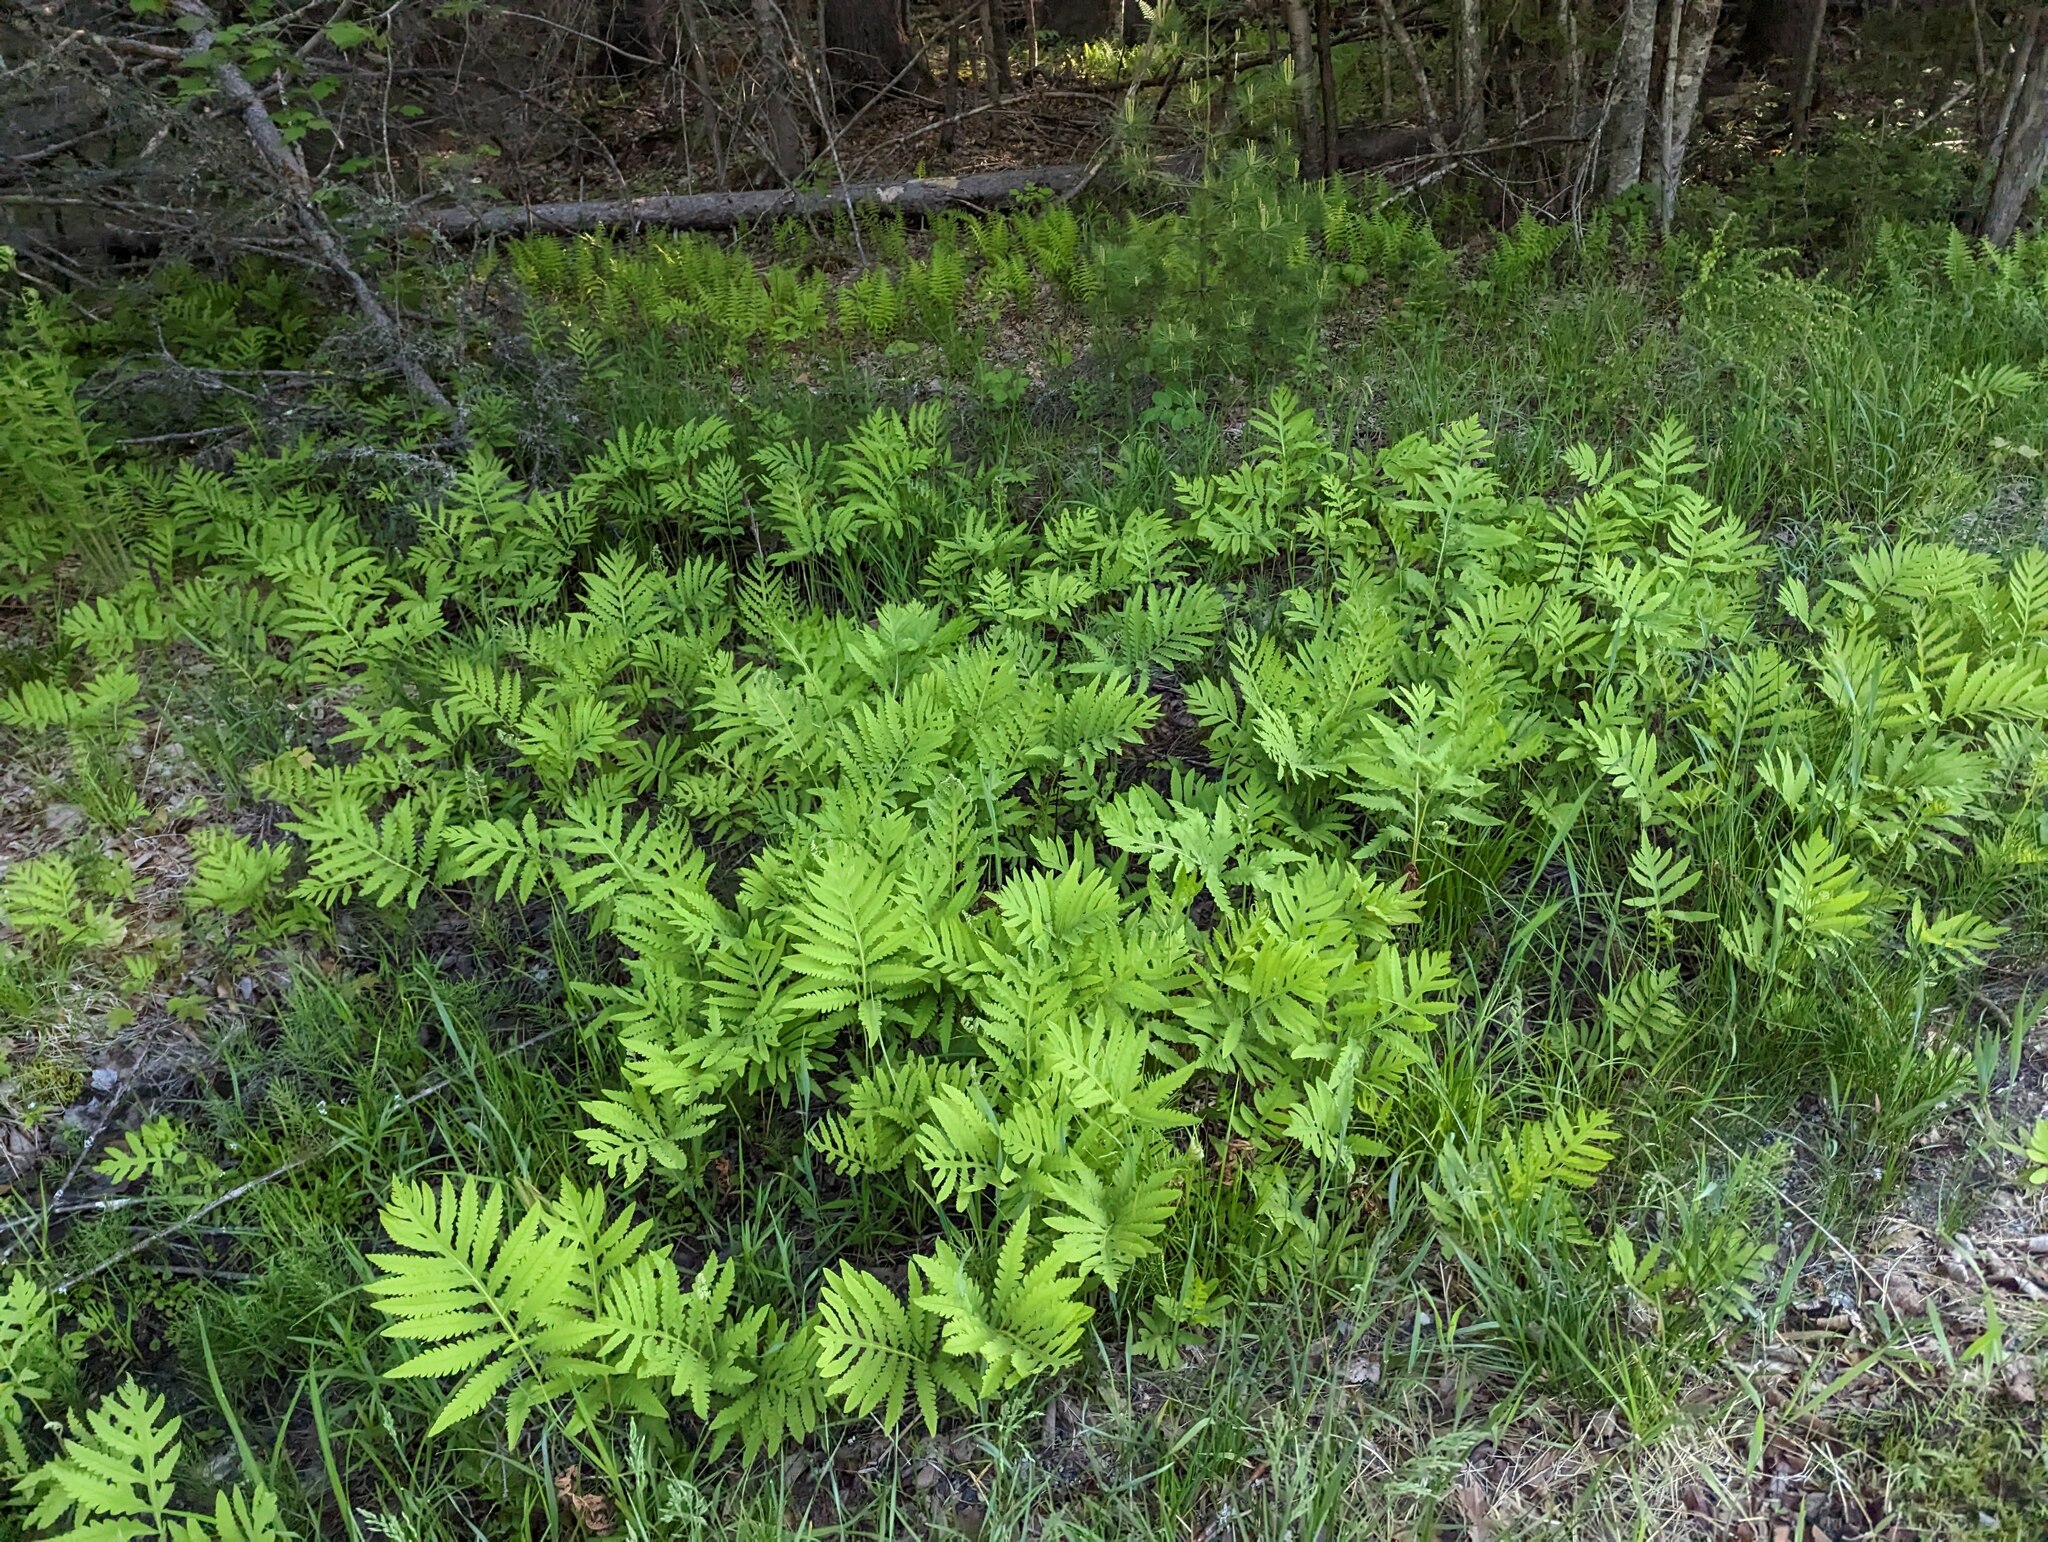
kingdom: Plantae
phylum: Tracheophyta
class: Polypodiopsida
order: Polypodiales
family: Onocleaceae
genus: Onoclea
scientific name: Onoclea sensibilis
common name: Sensitive fern
